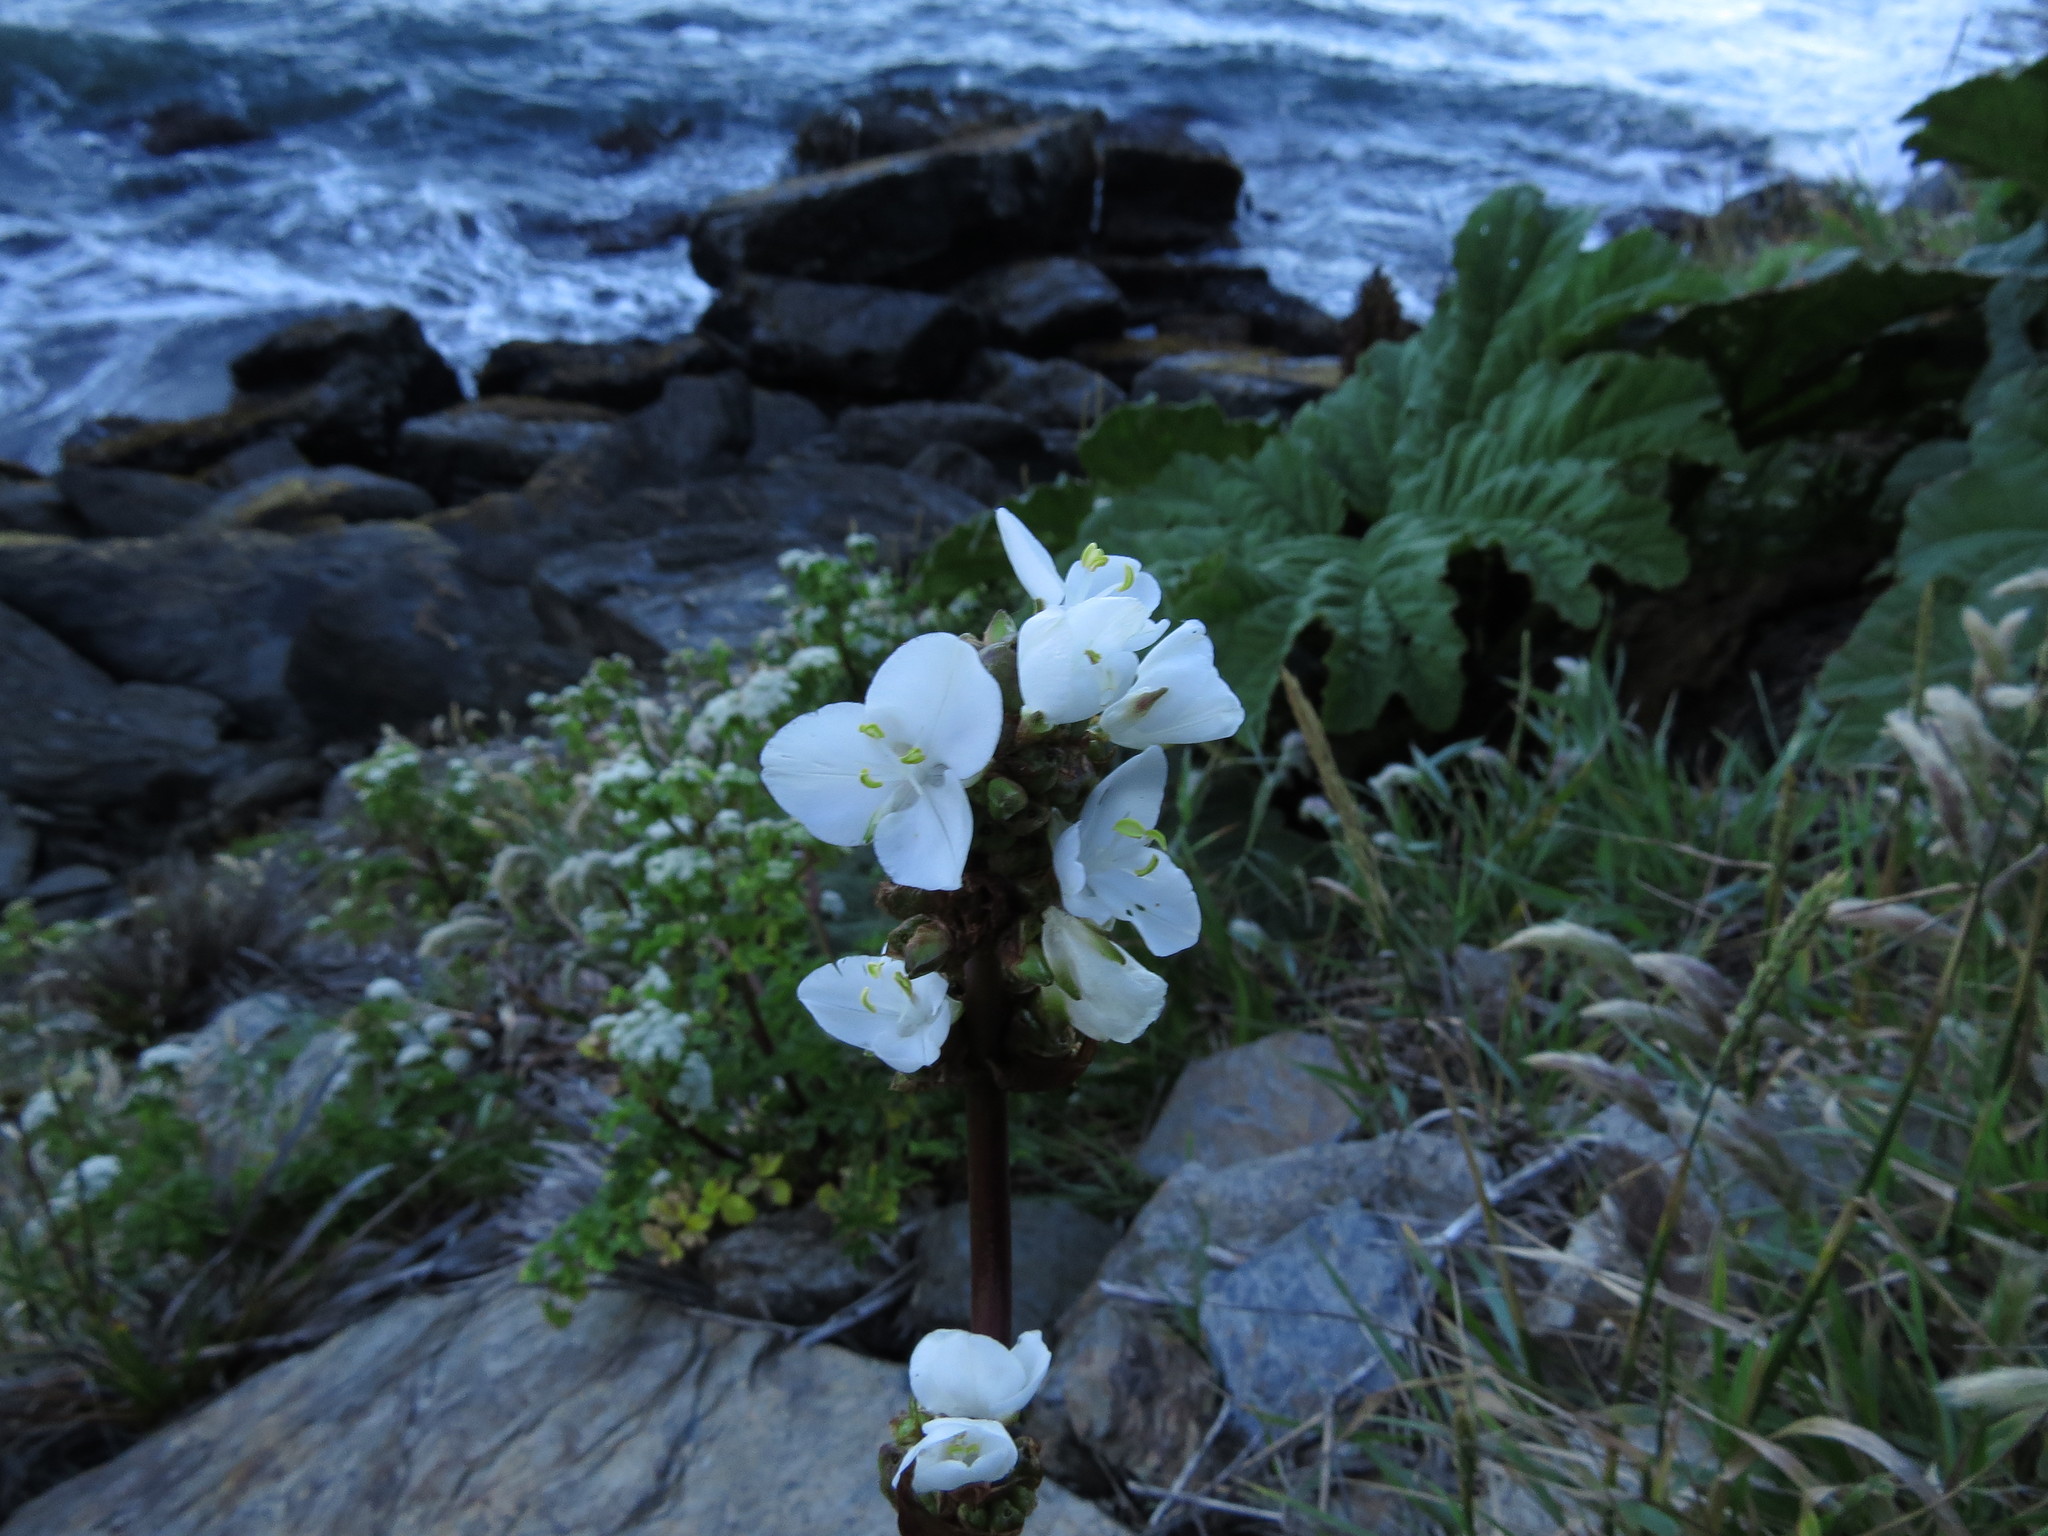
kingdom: Plantae
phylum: Tracheophyta
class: Liliopsida
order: Asparagales
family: Iridaceae
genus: Libertia
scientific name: Libertia chilensis
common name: Satin flower
